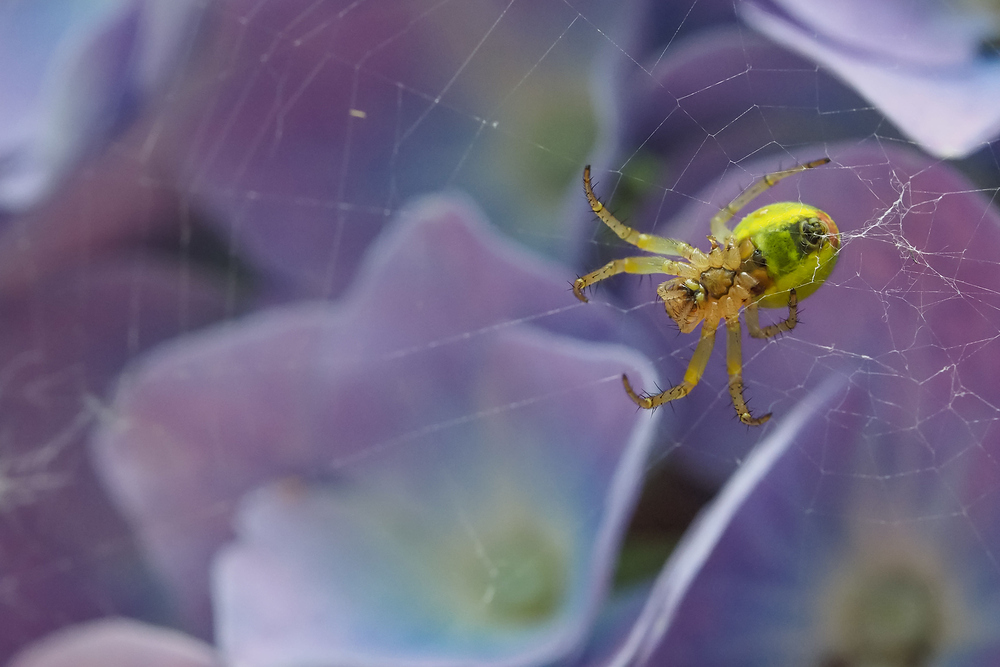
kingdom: Animalia
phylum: Arthropoda
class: Arachnida
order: Araneae
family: Araneidae
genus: Araniella
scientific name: Araniella
